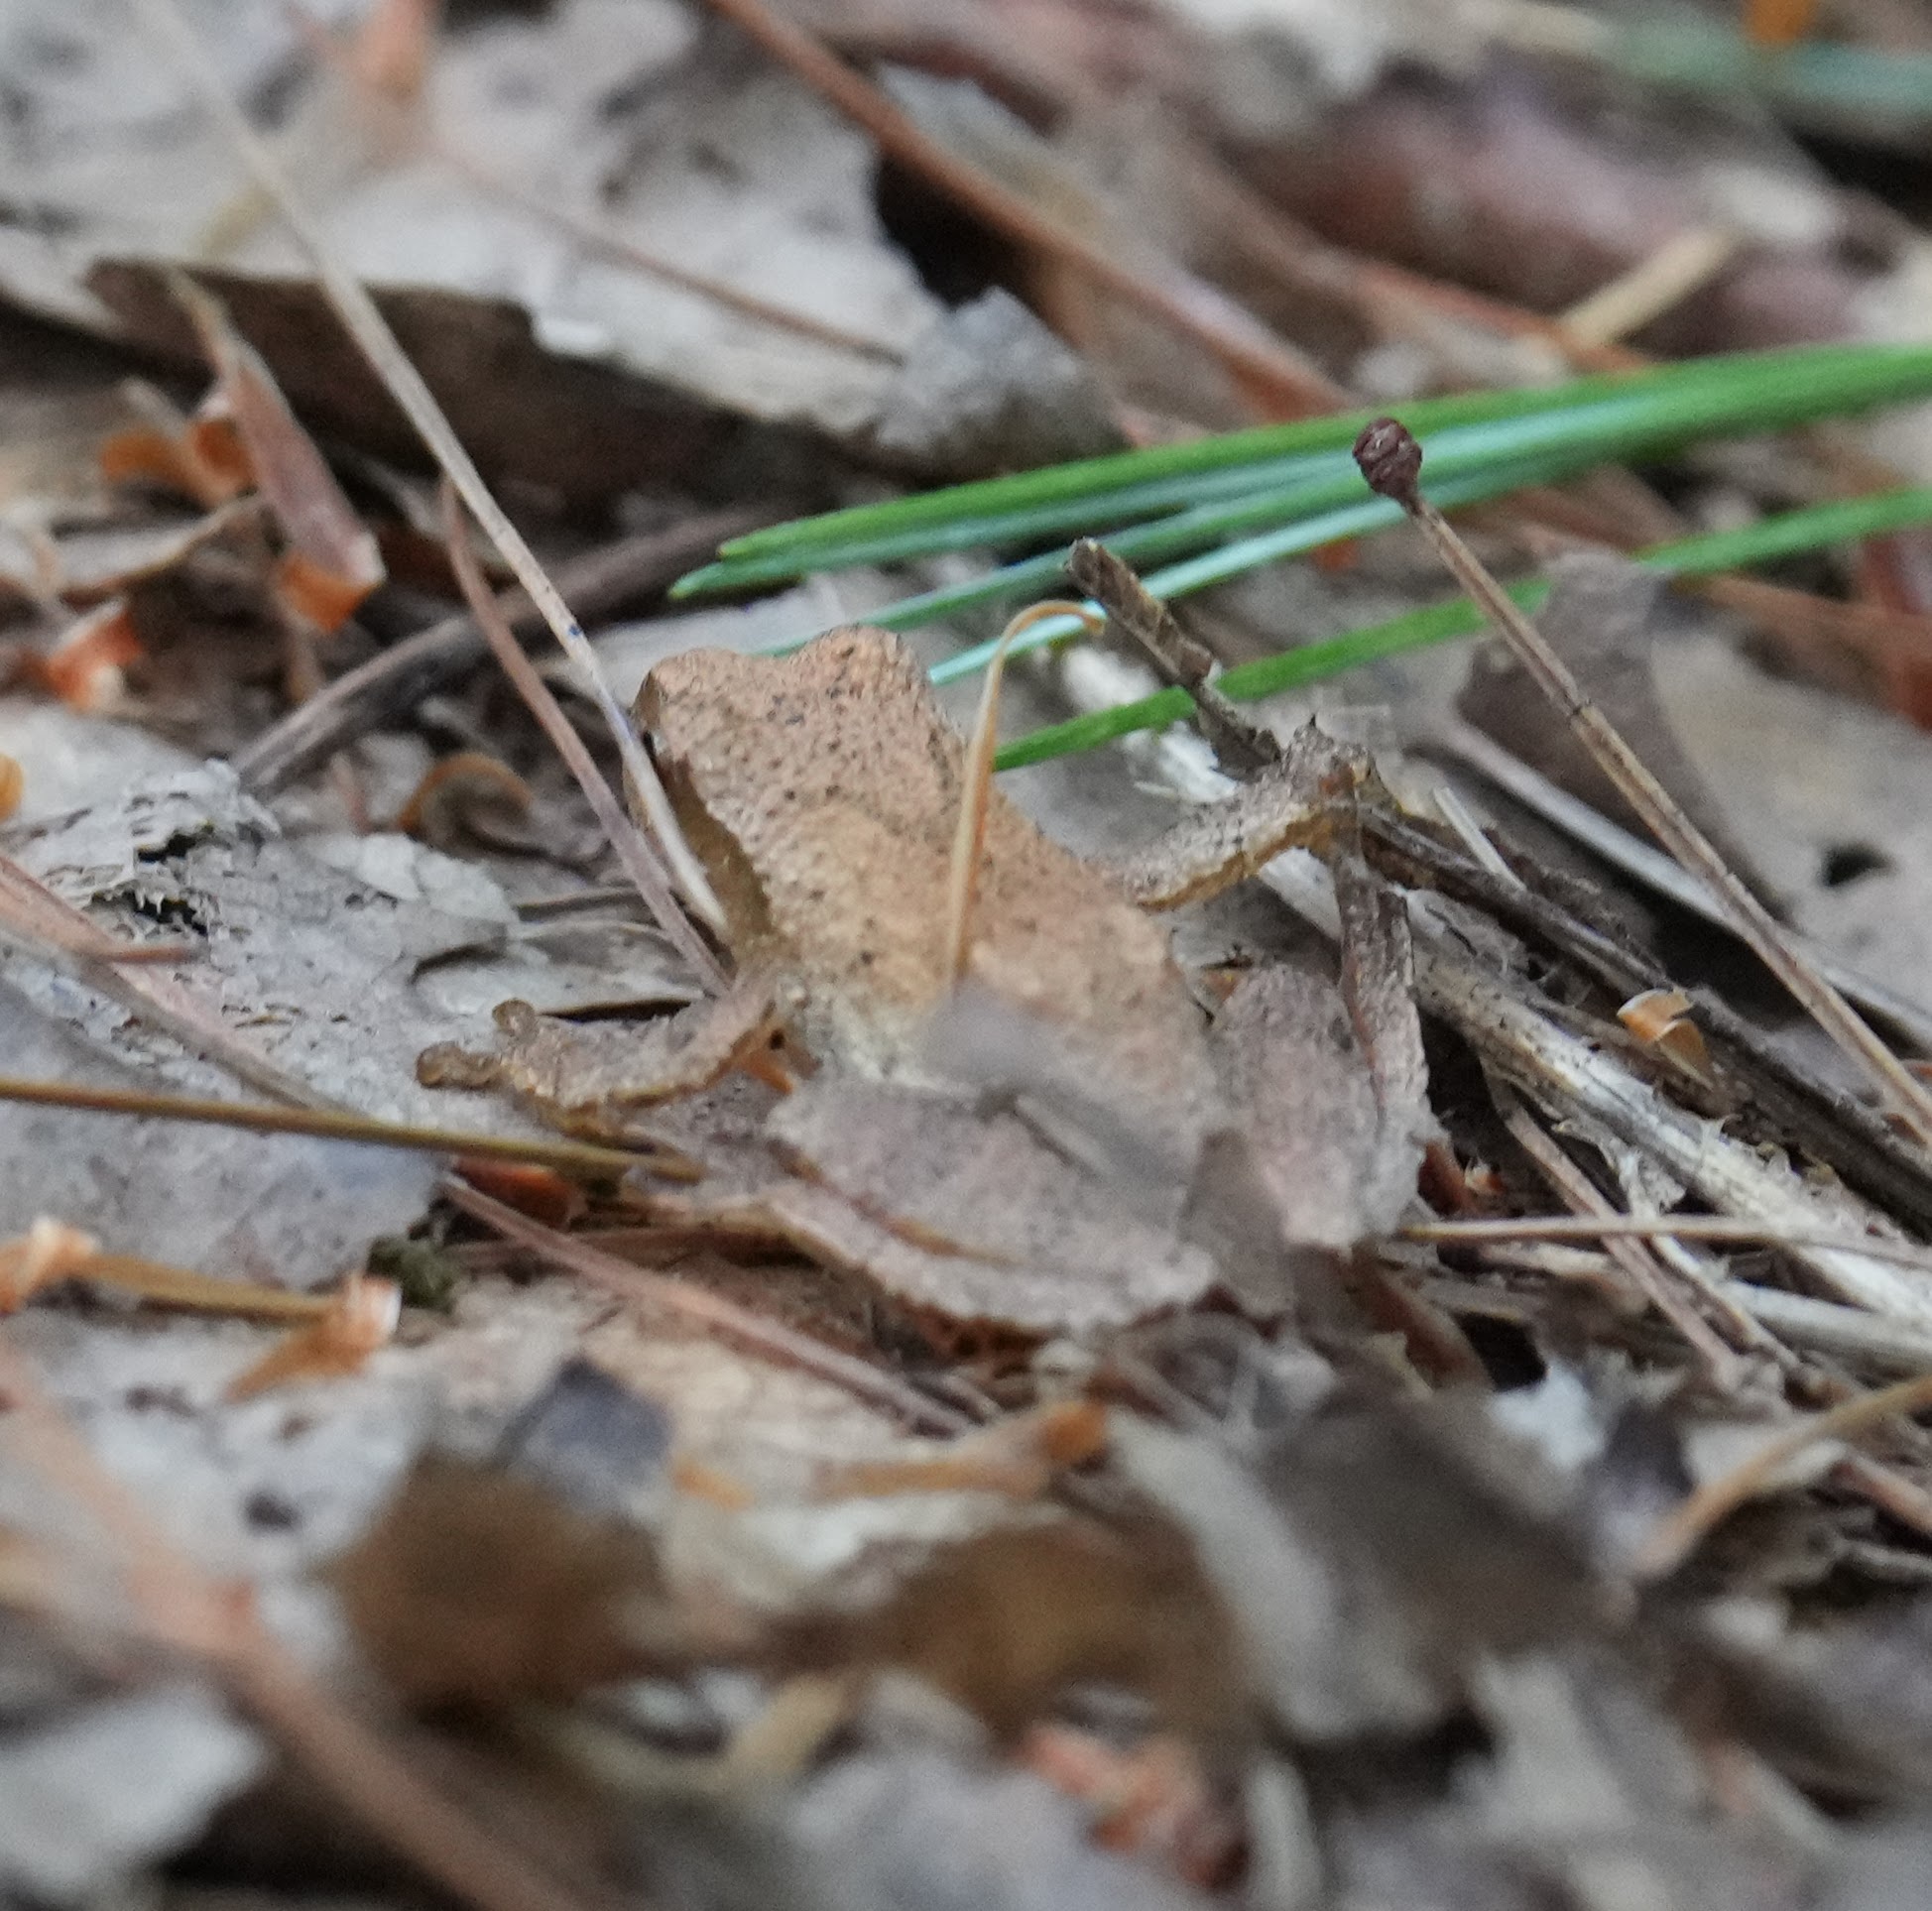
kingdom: Animalia
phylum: Chordata
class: Amphibia
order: Anura
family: Hylidae
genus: Pseudacris
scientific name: Pseudacris crucifer
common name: Spring peeper
